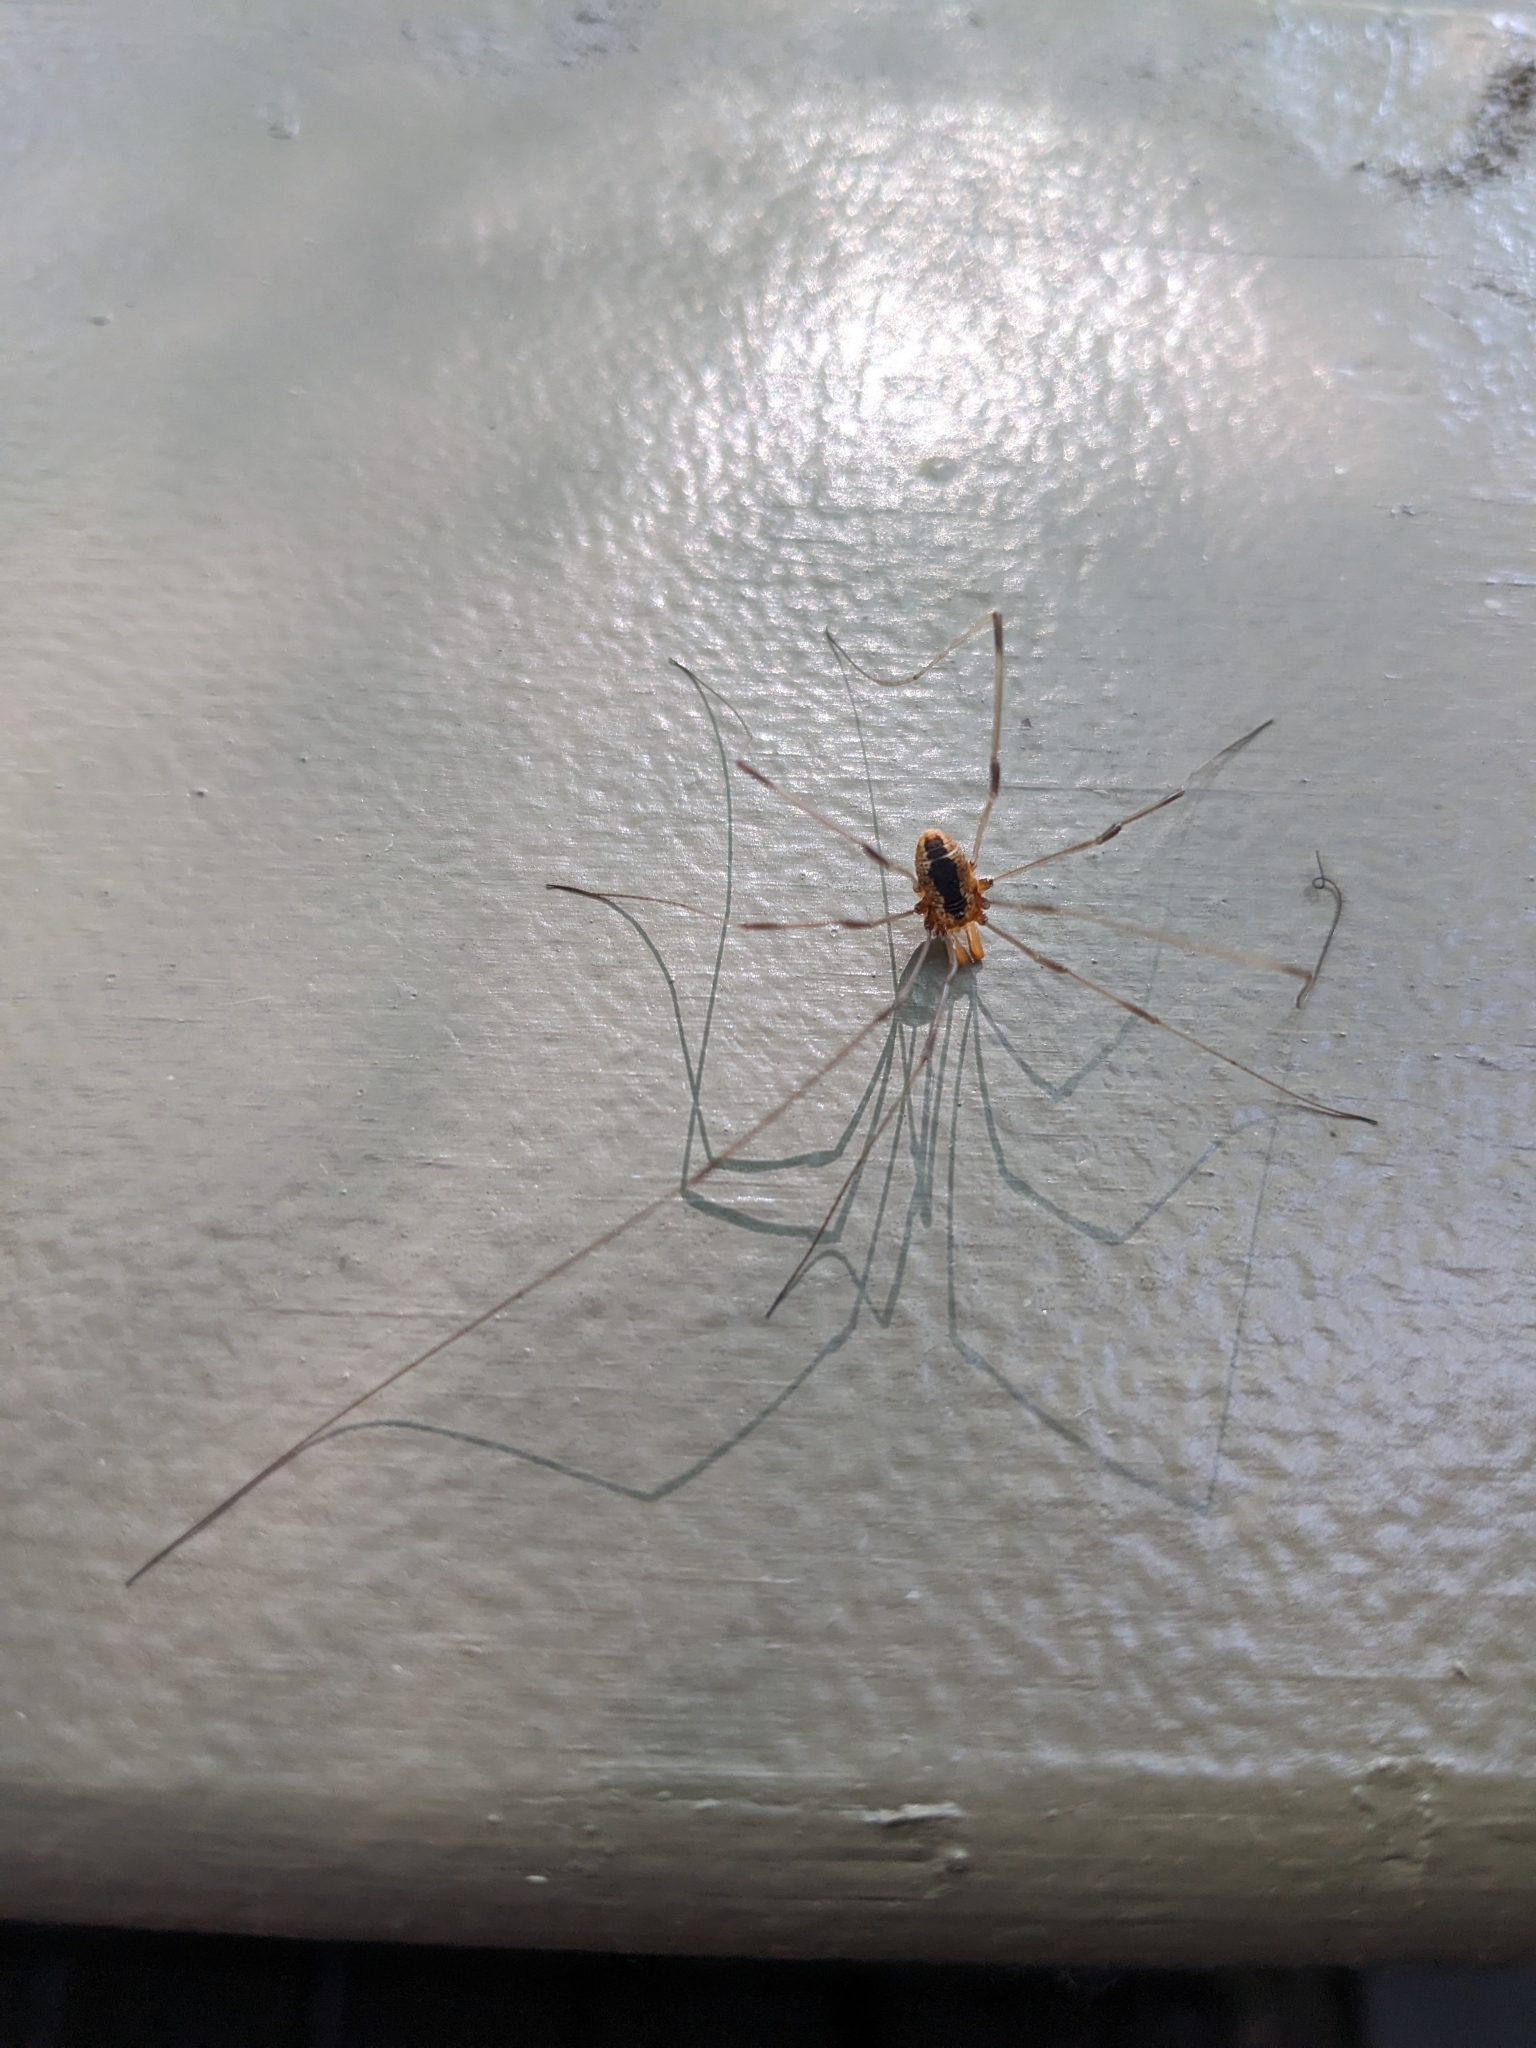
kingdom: Animalia
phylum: Arthropoda
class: Arachnida
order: Opiliones
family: Sclerosomatidae
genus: Leiobunum
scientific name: Leiobunum vittatum
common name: Eastern harvestman
